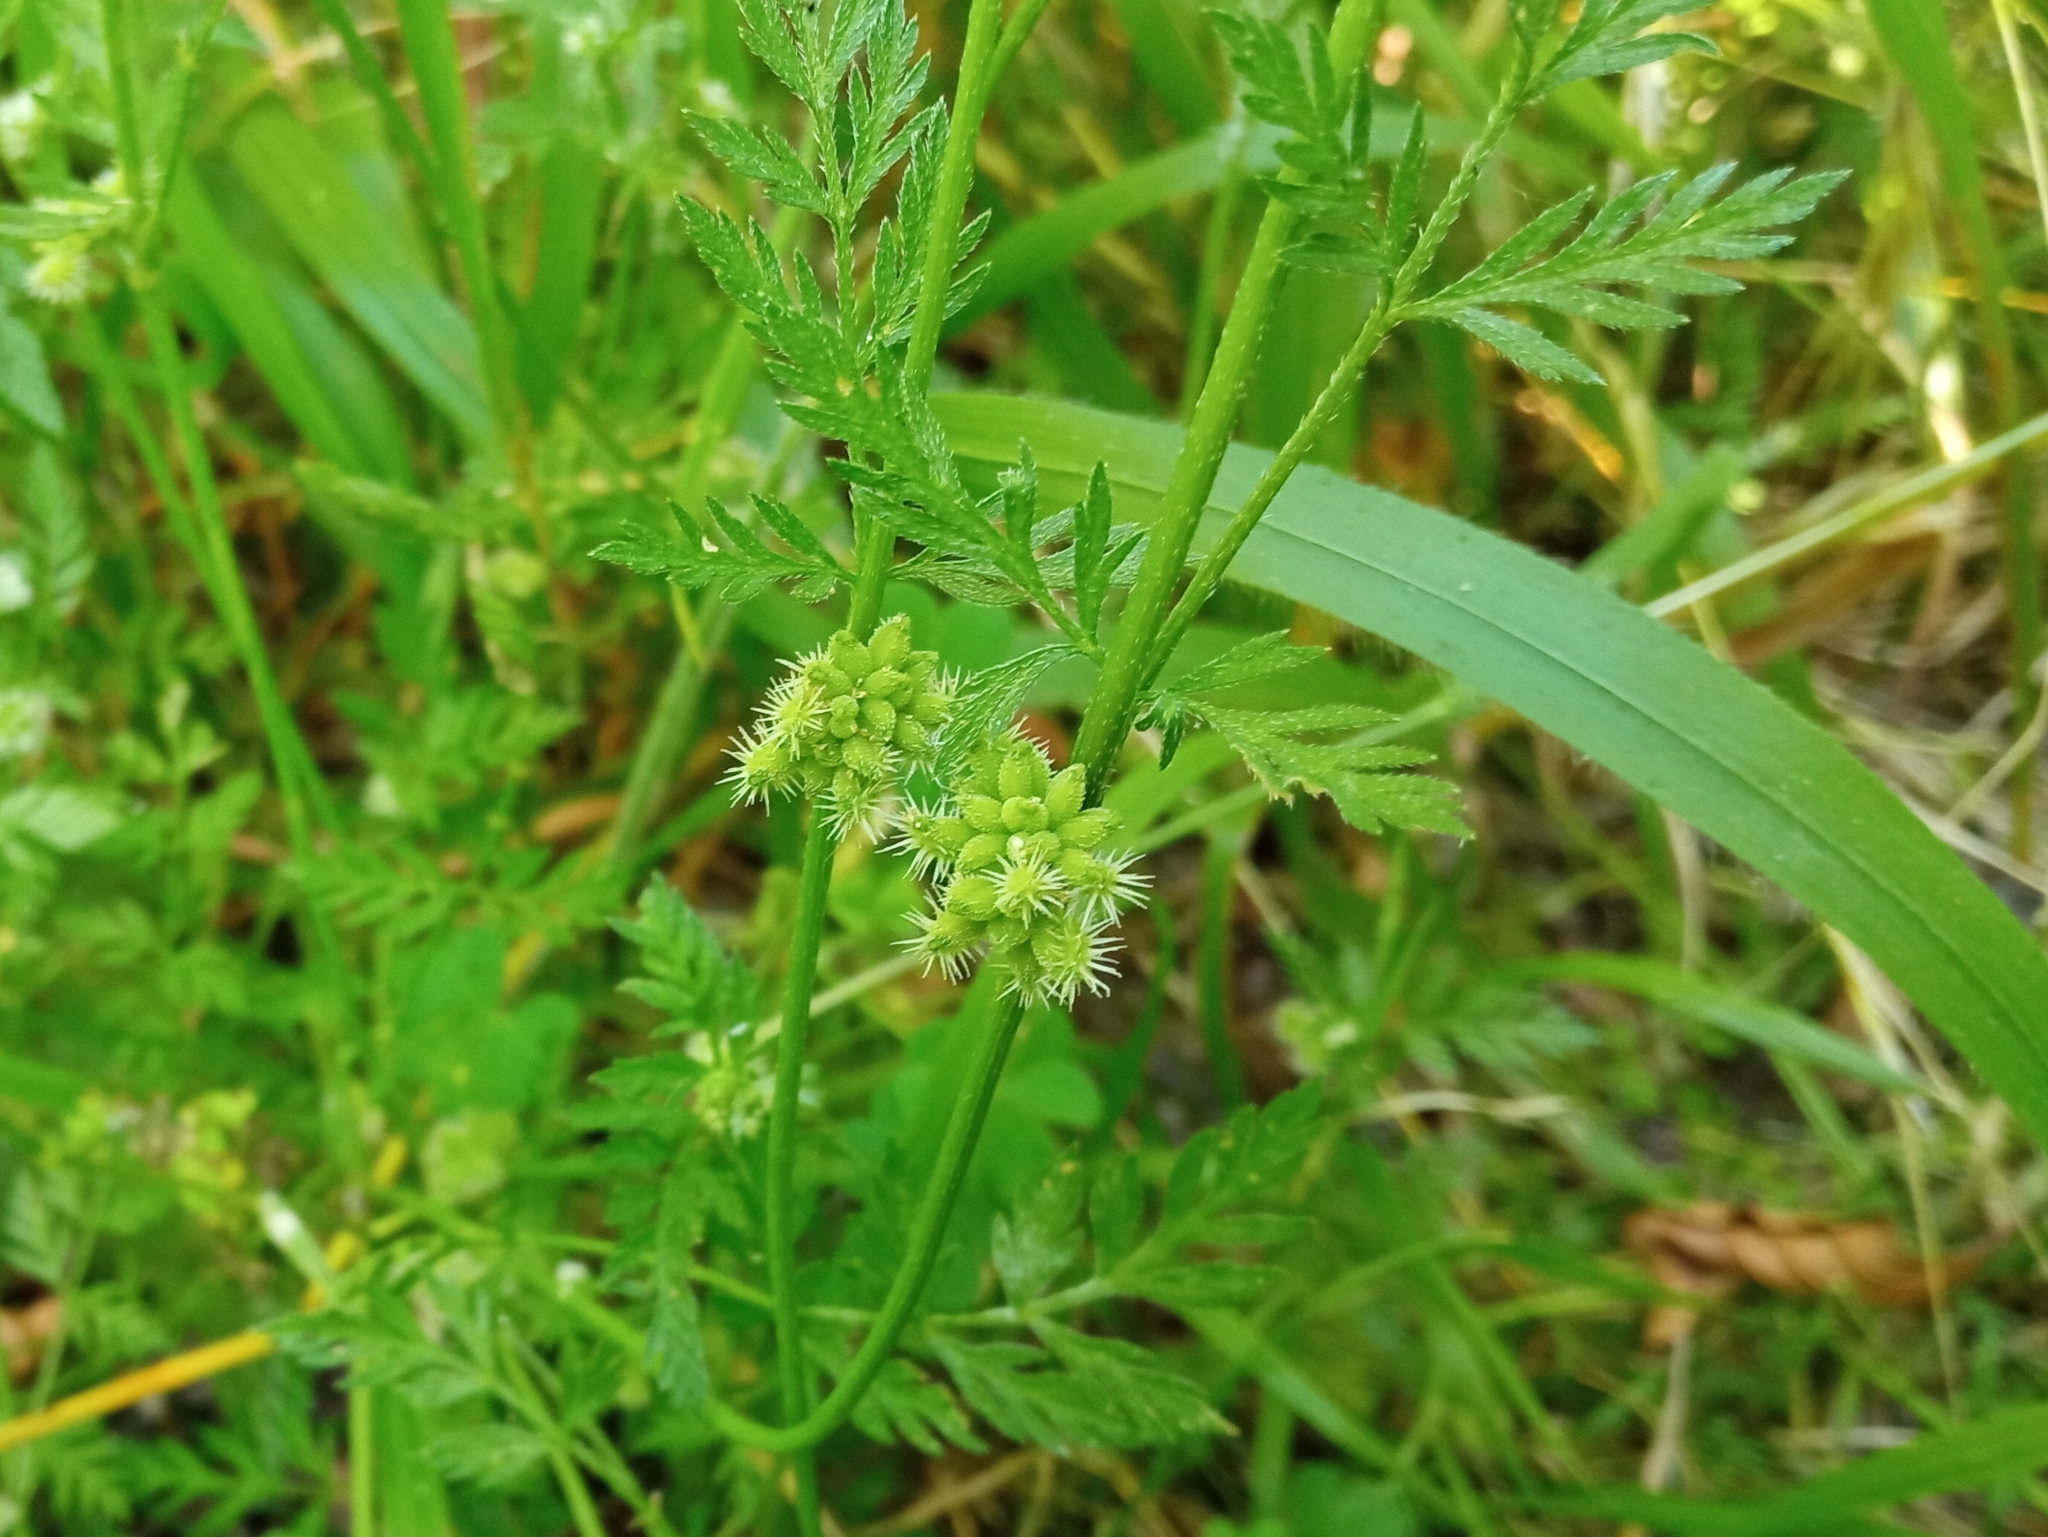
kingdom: Plantae
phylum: Tracheophyta
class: Magnoliopsida
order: Apiales
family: Apiaceae
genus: Torilis
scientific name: Torilis nodosa
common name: Knotted hedge-parsley
